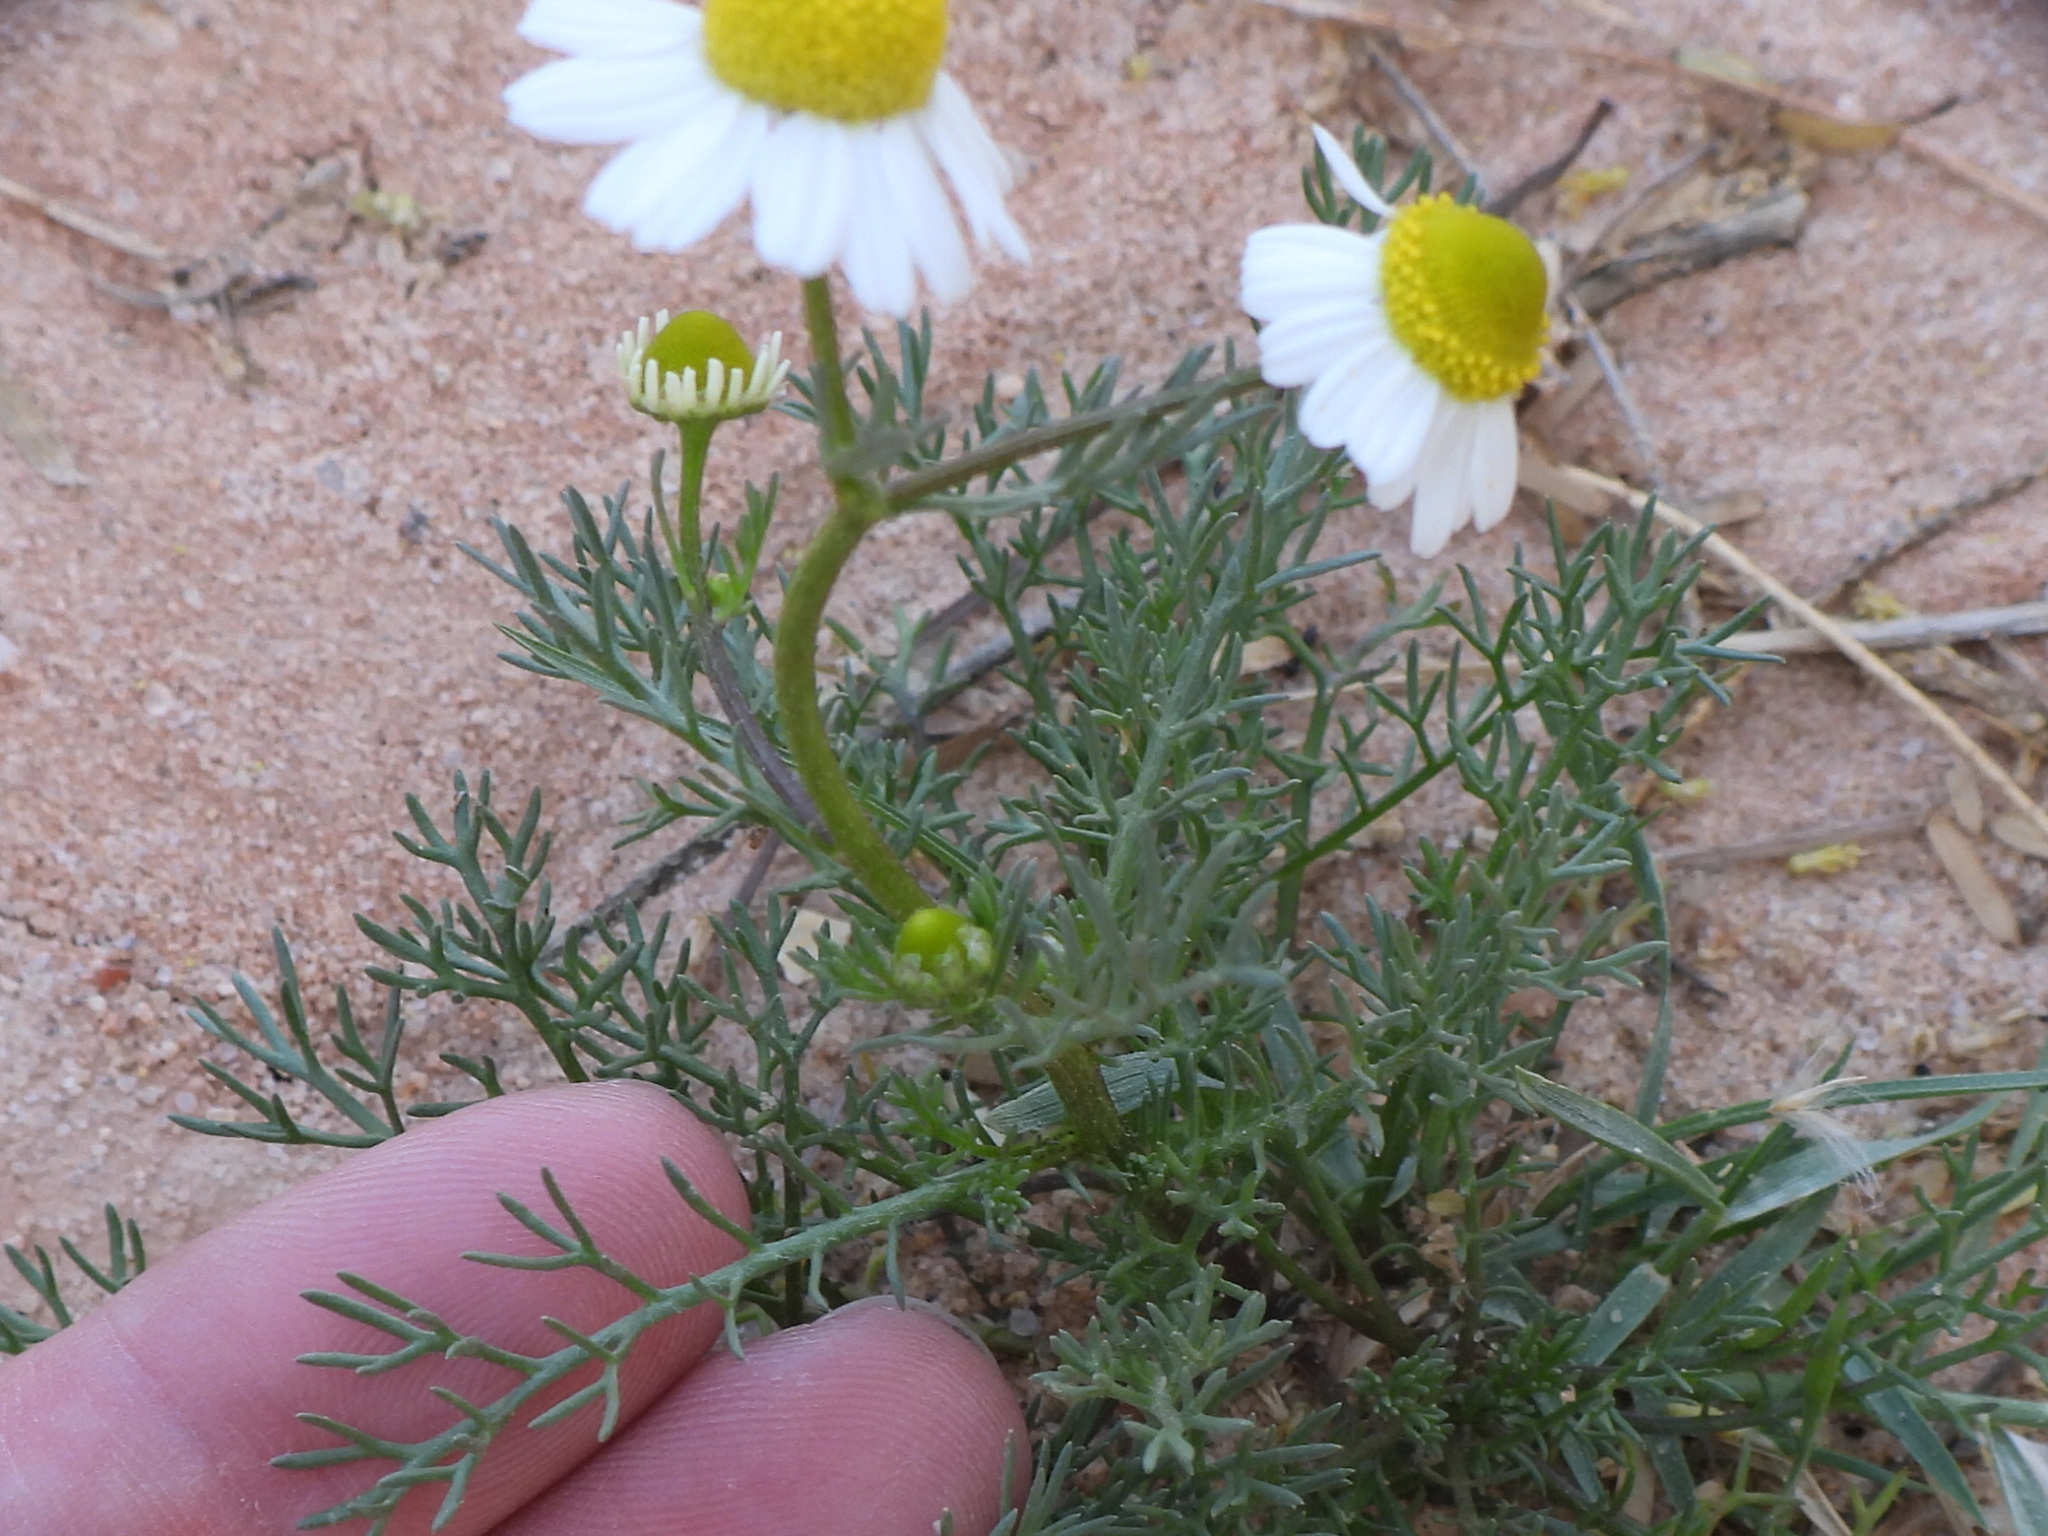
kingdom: Plantae
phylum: Tracheophyta
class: Magnoliopsida
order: Asterales
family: Asteraceae
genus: Matricaria
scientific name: Matricaria chamomilla
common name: Scented mayweed
